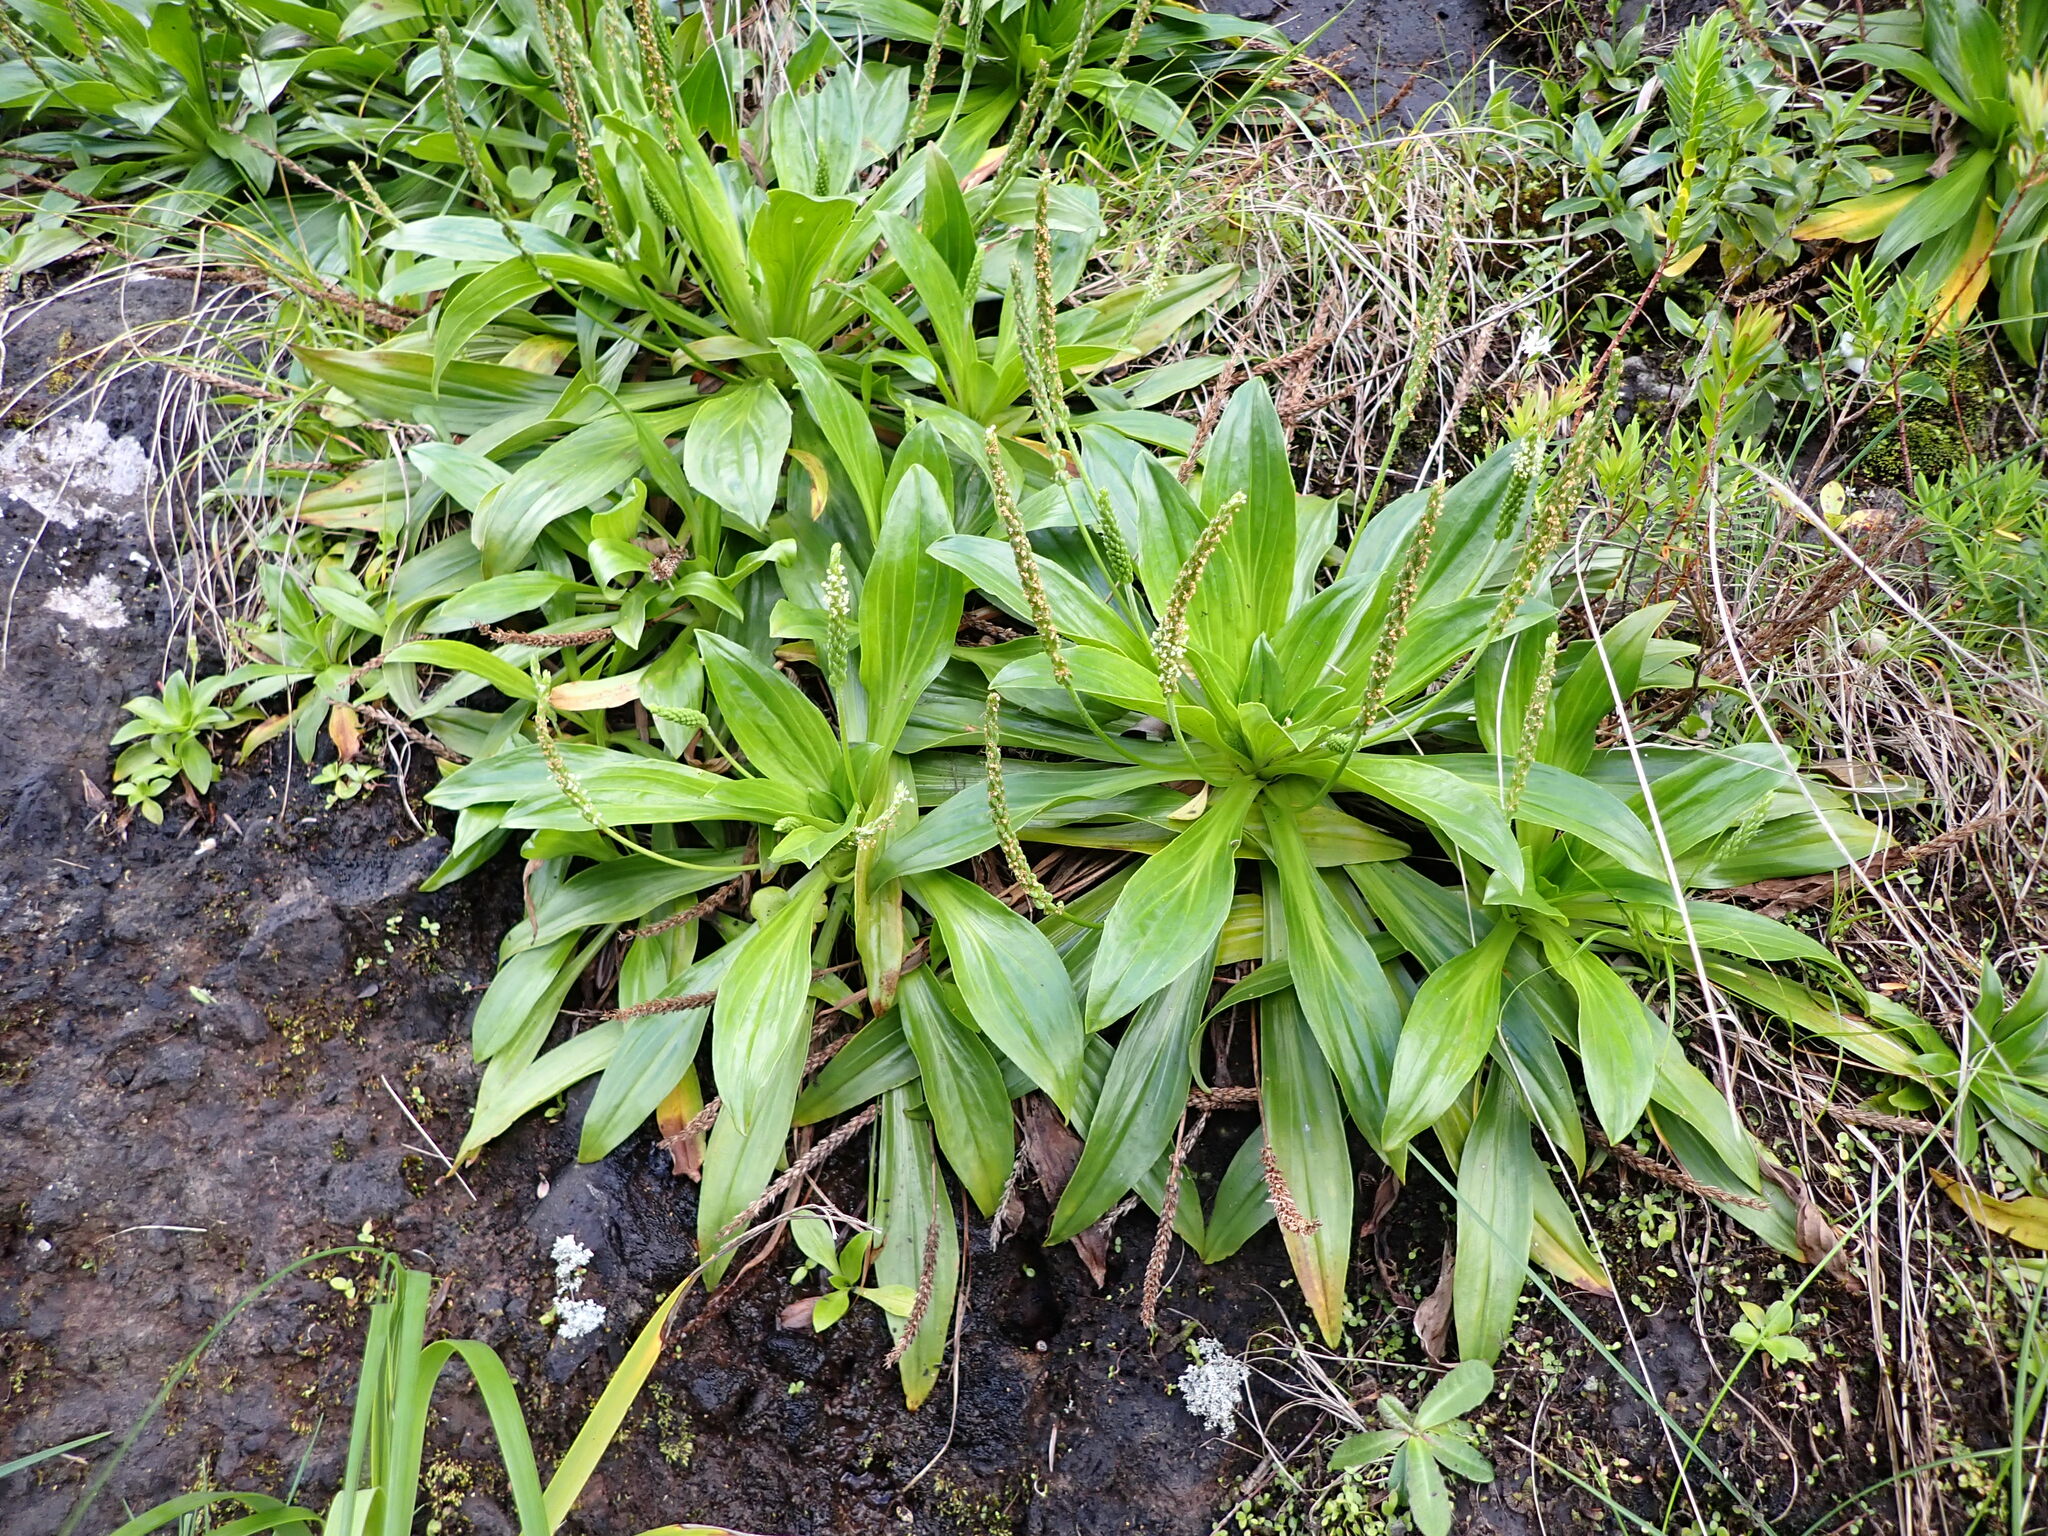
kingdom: Plantae
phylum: Tracheophyta
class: Magnoliopsida
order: Lamiales
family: Plantaginaceae
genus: Plantago
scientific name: Plantago hedleyi
